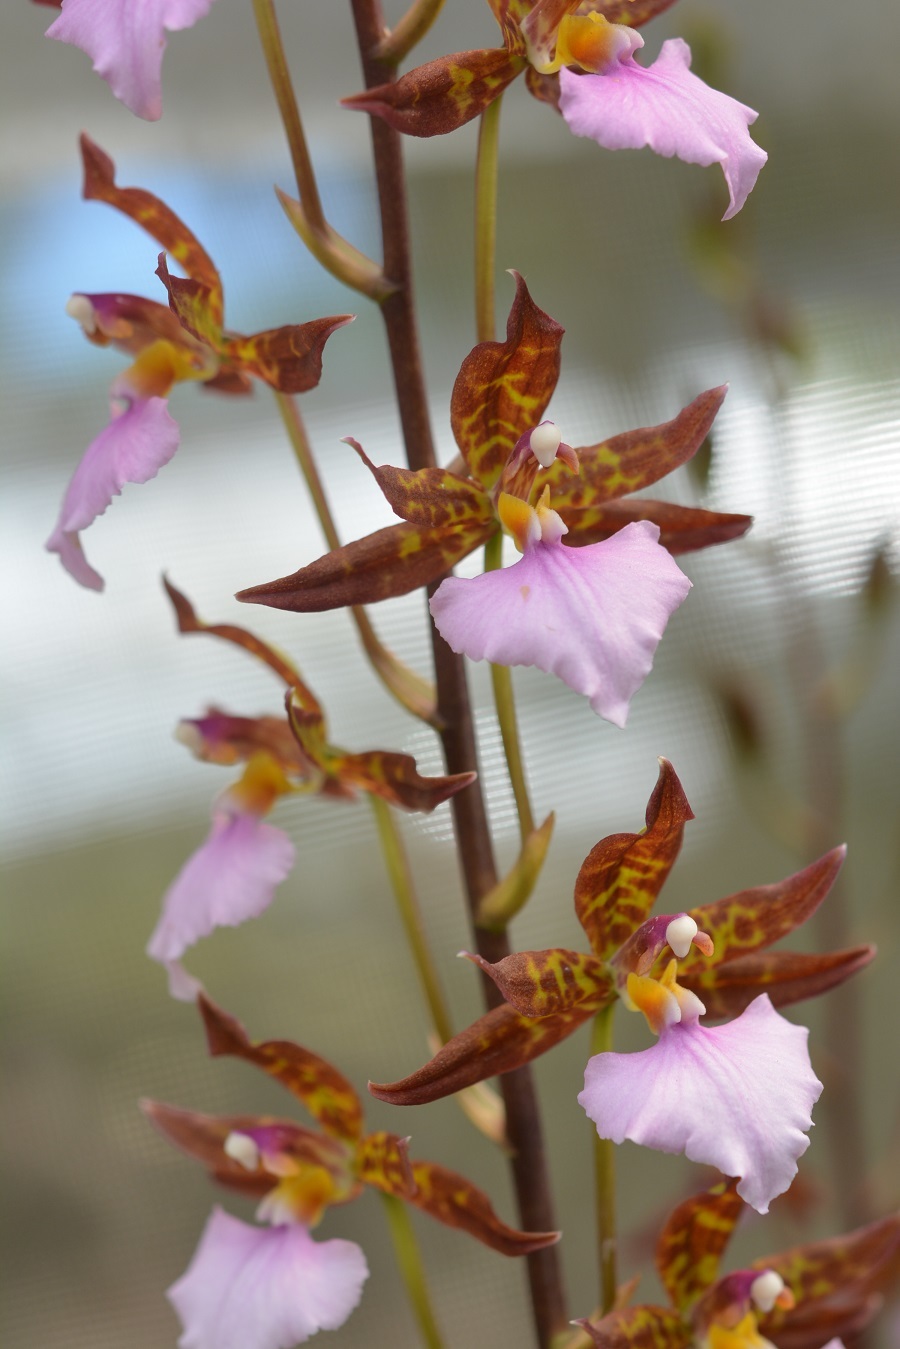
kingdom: Plantae
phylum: Tracheophyta
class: Liliopsida
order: Asparagales
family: Orchidaceae
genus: Rhynchostele
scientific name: Rhynchostele bictoniensis
